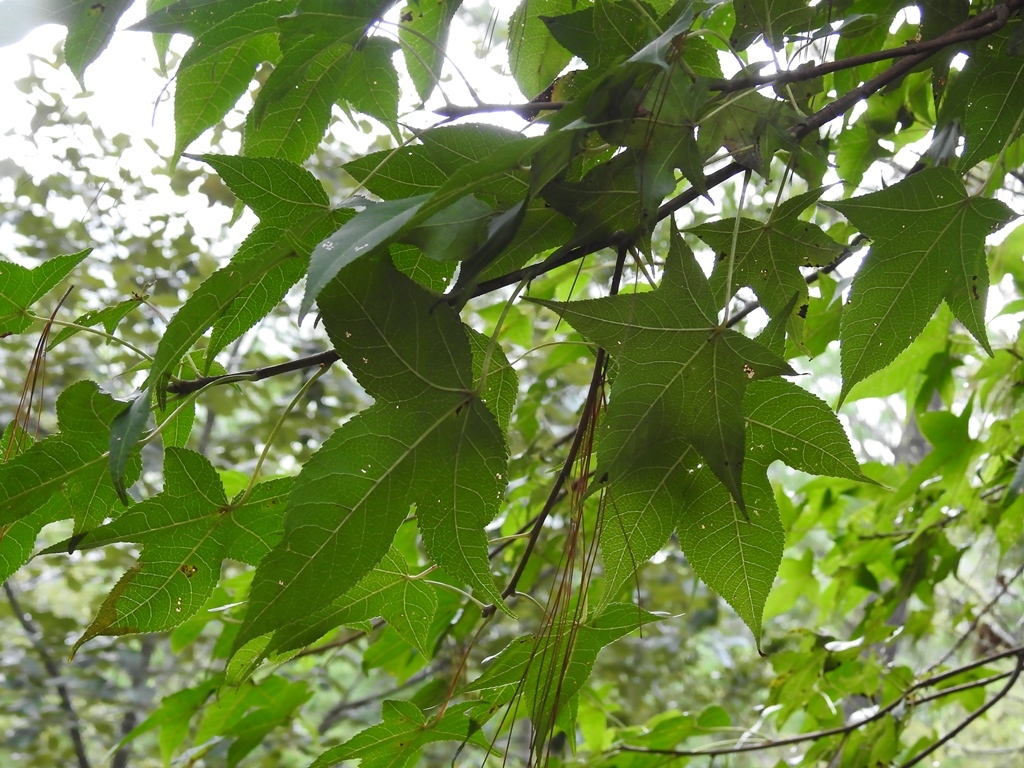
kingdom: Plantae
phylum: Tracheophyta
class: Magnoliopsida
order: Saxifragales
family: Altingiaceae
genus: Liquidambar
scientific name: Liquidambar styraciflua
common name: Sweet gum
